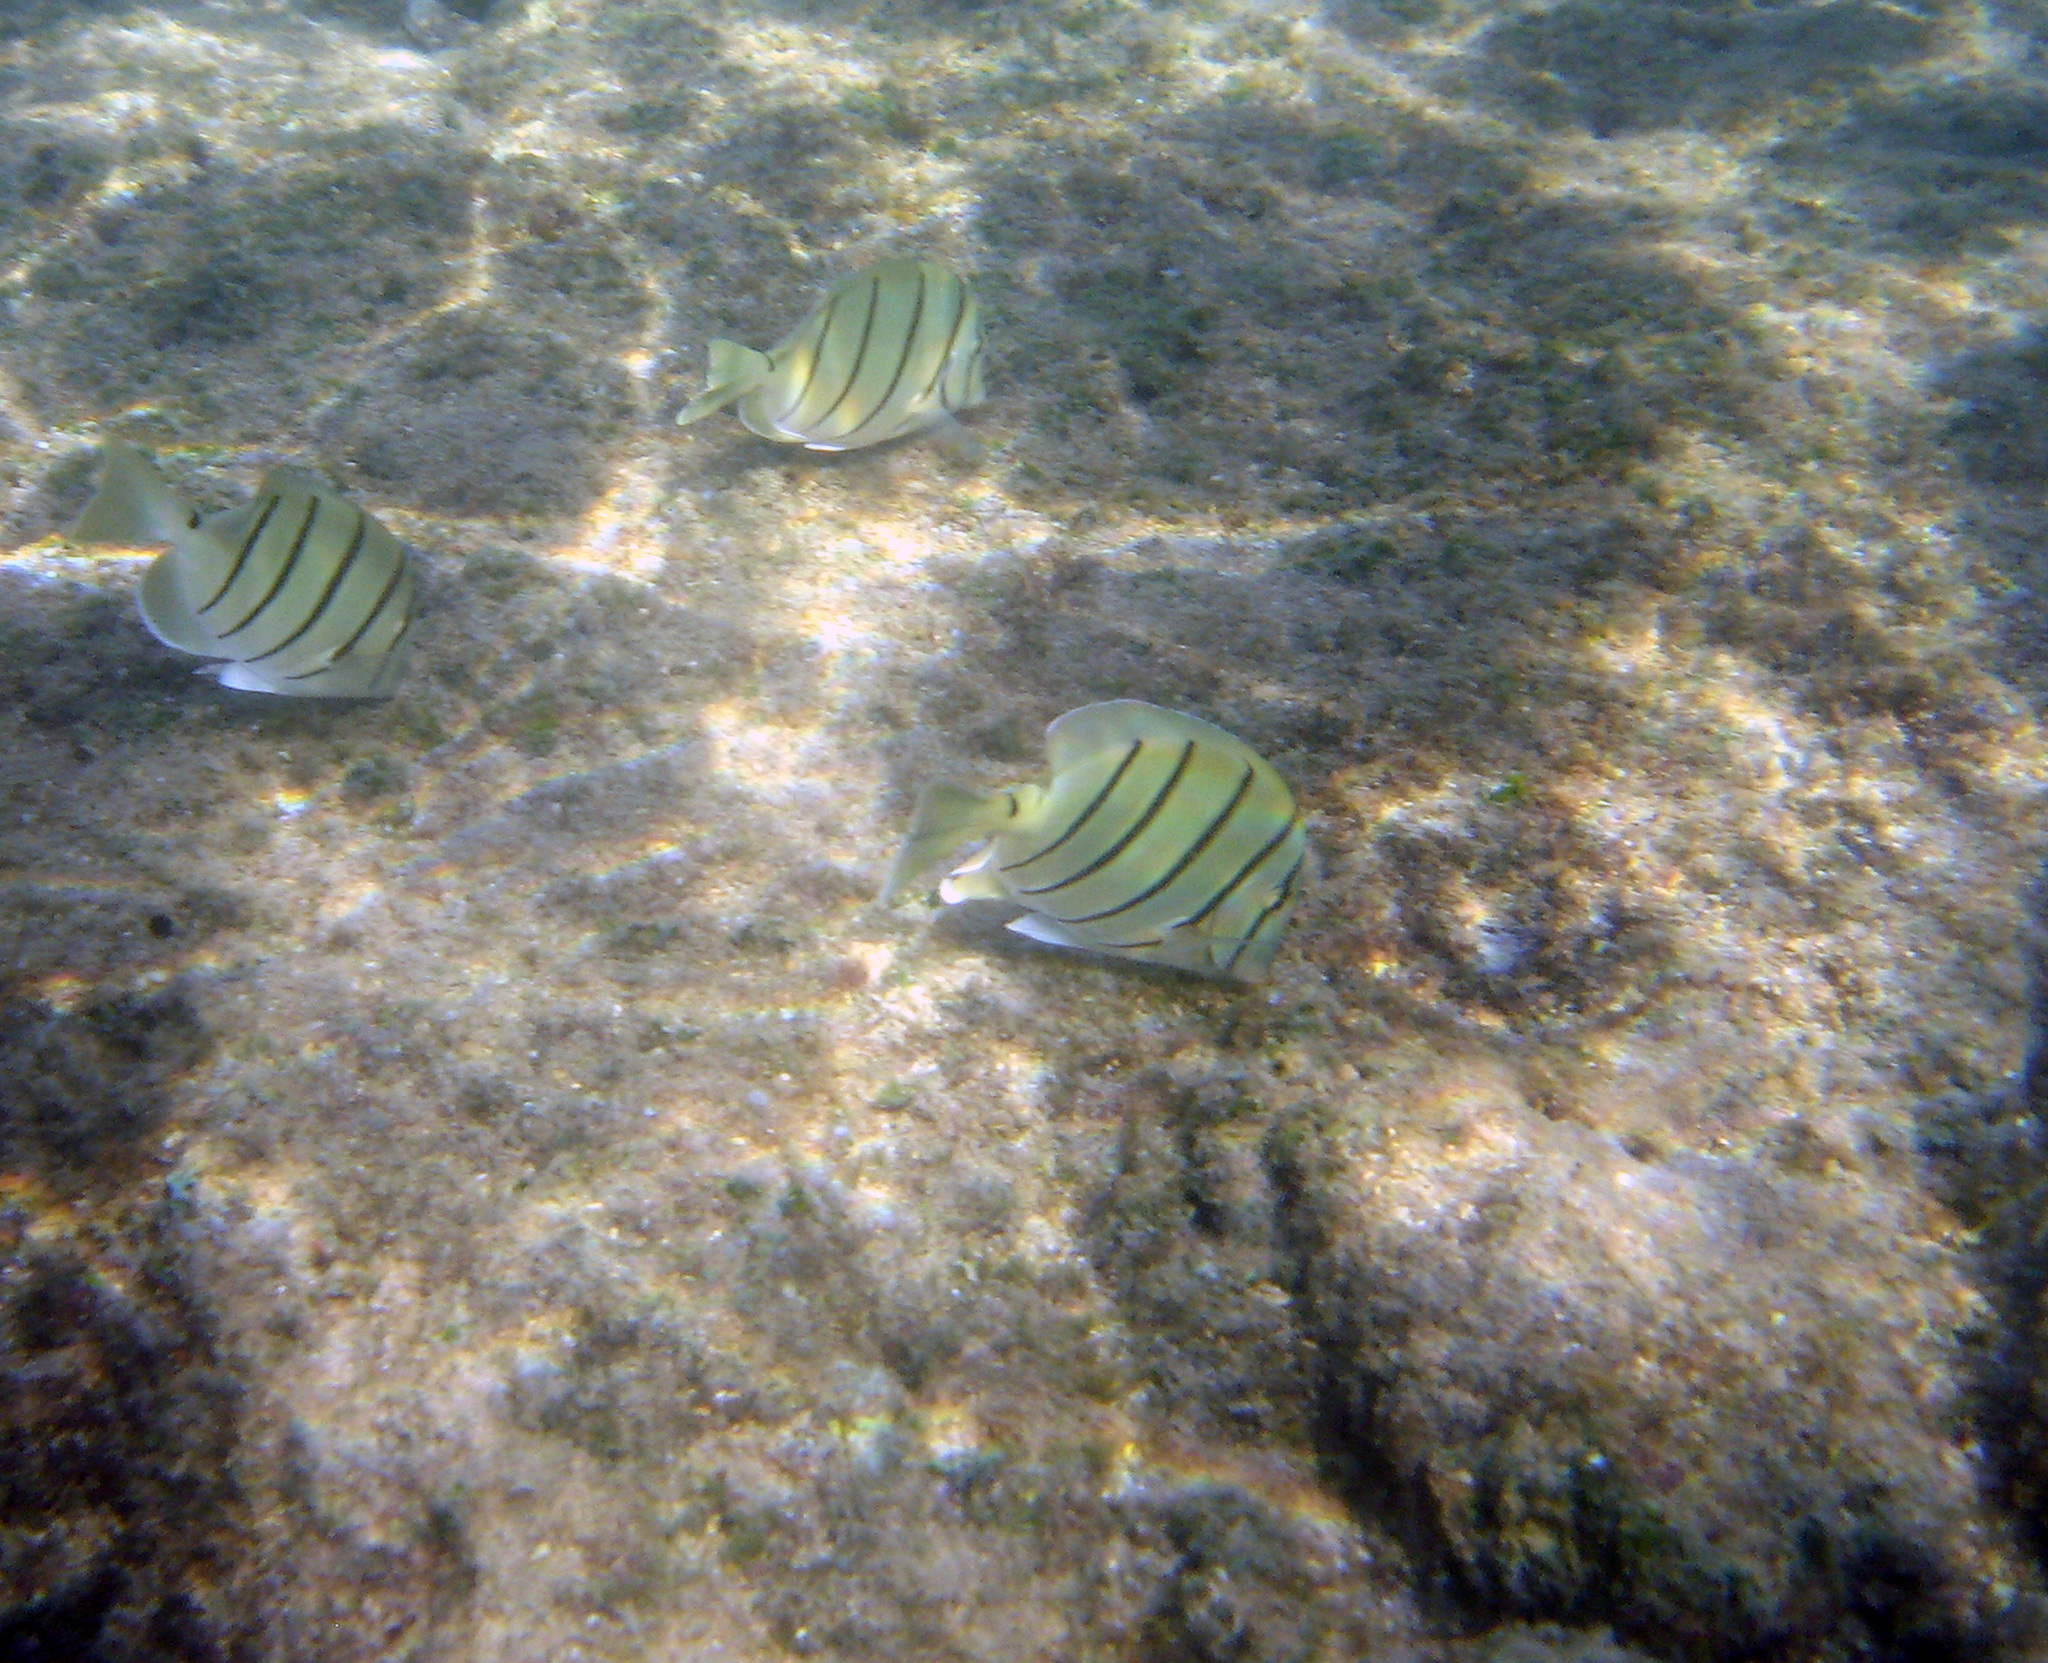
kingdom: Animalia
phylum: Chordata
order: Perciformes
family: Acanthuridae
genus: Acanthurus
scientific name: Acanthurus triostegus
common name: Convict surgeonfish
